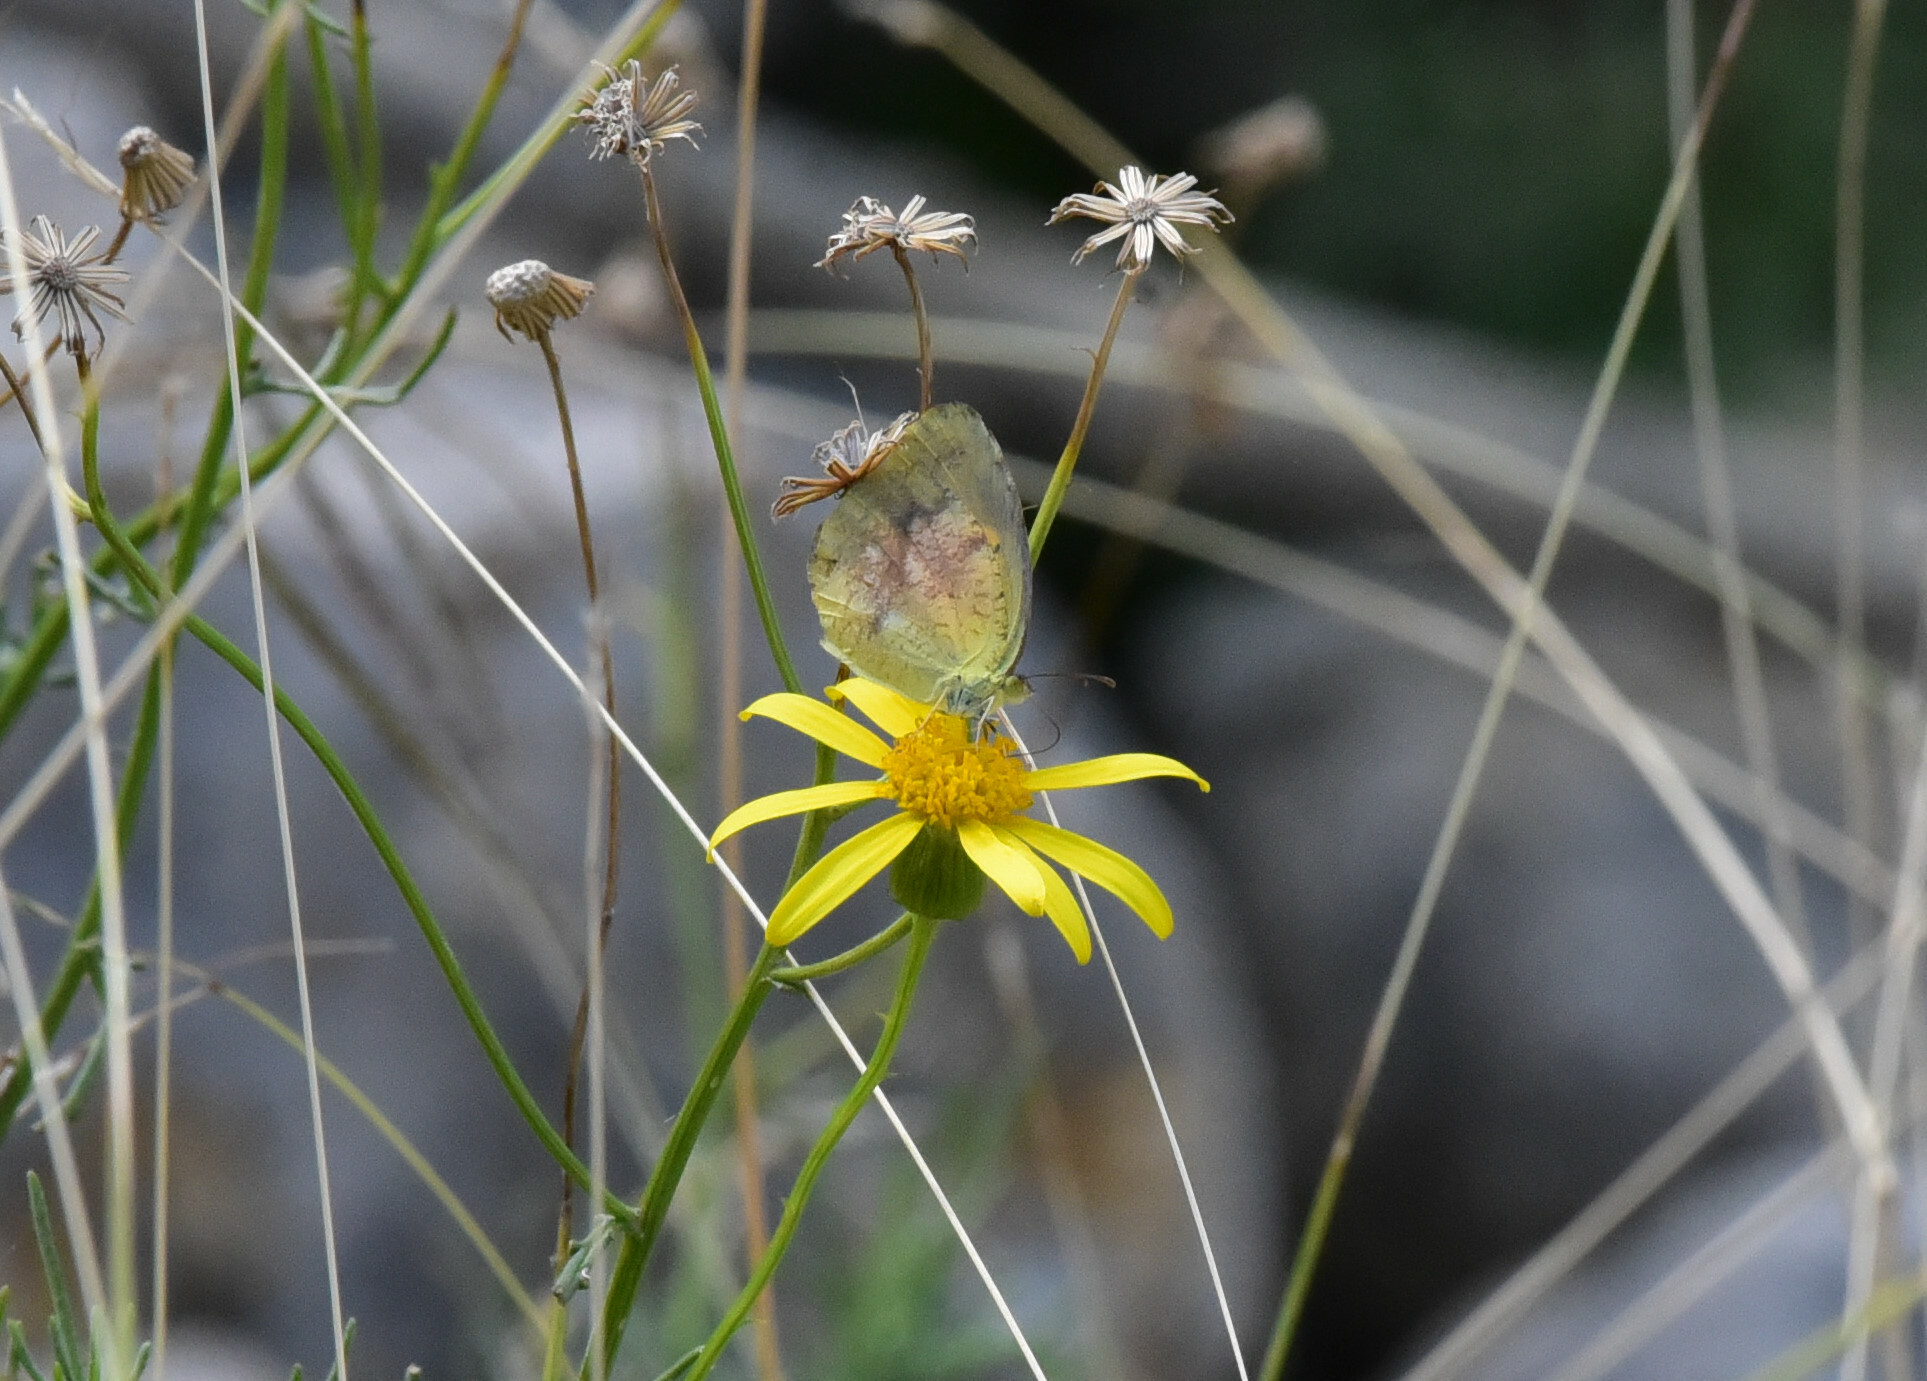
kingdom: Animalia
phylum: Arthropoda
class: Insecta
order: Lepidoptera
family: Pieridae
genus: Abaeis
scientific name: Abaeis nicippe
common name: Sleepy orange
